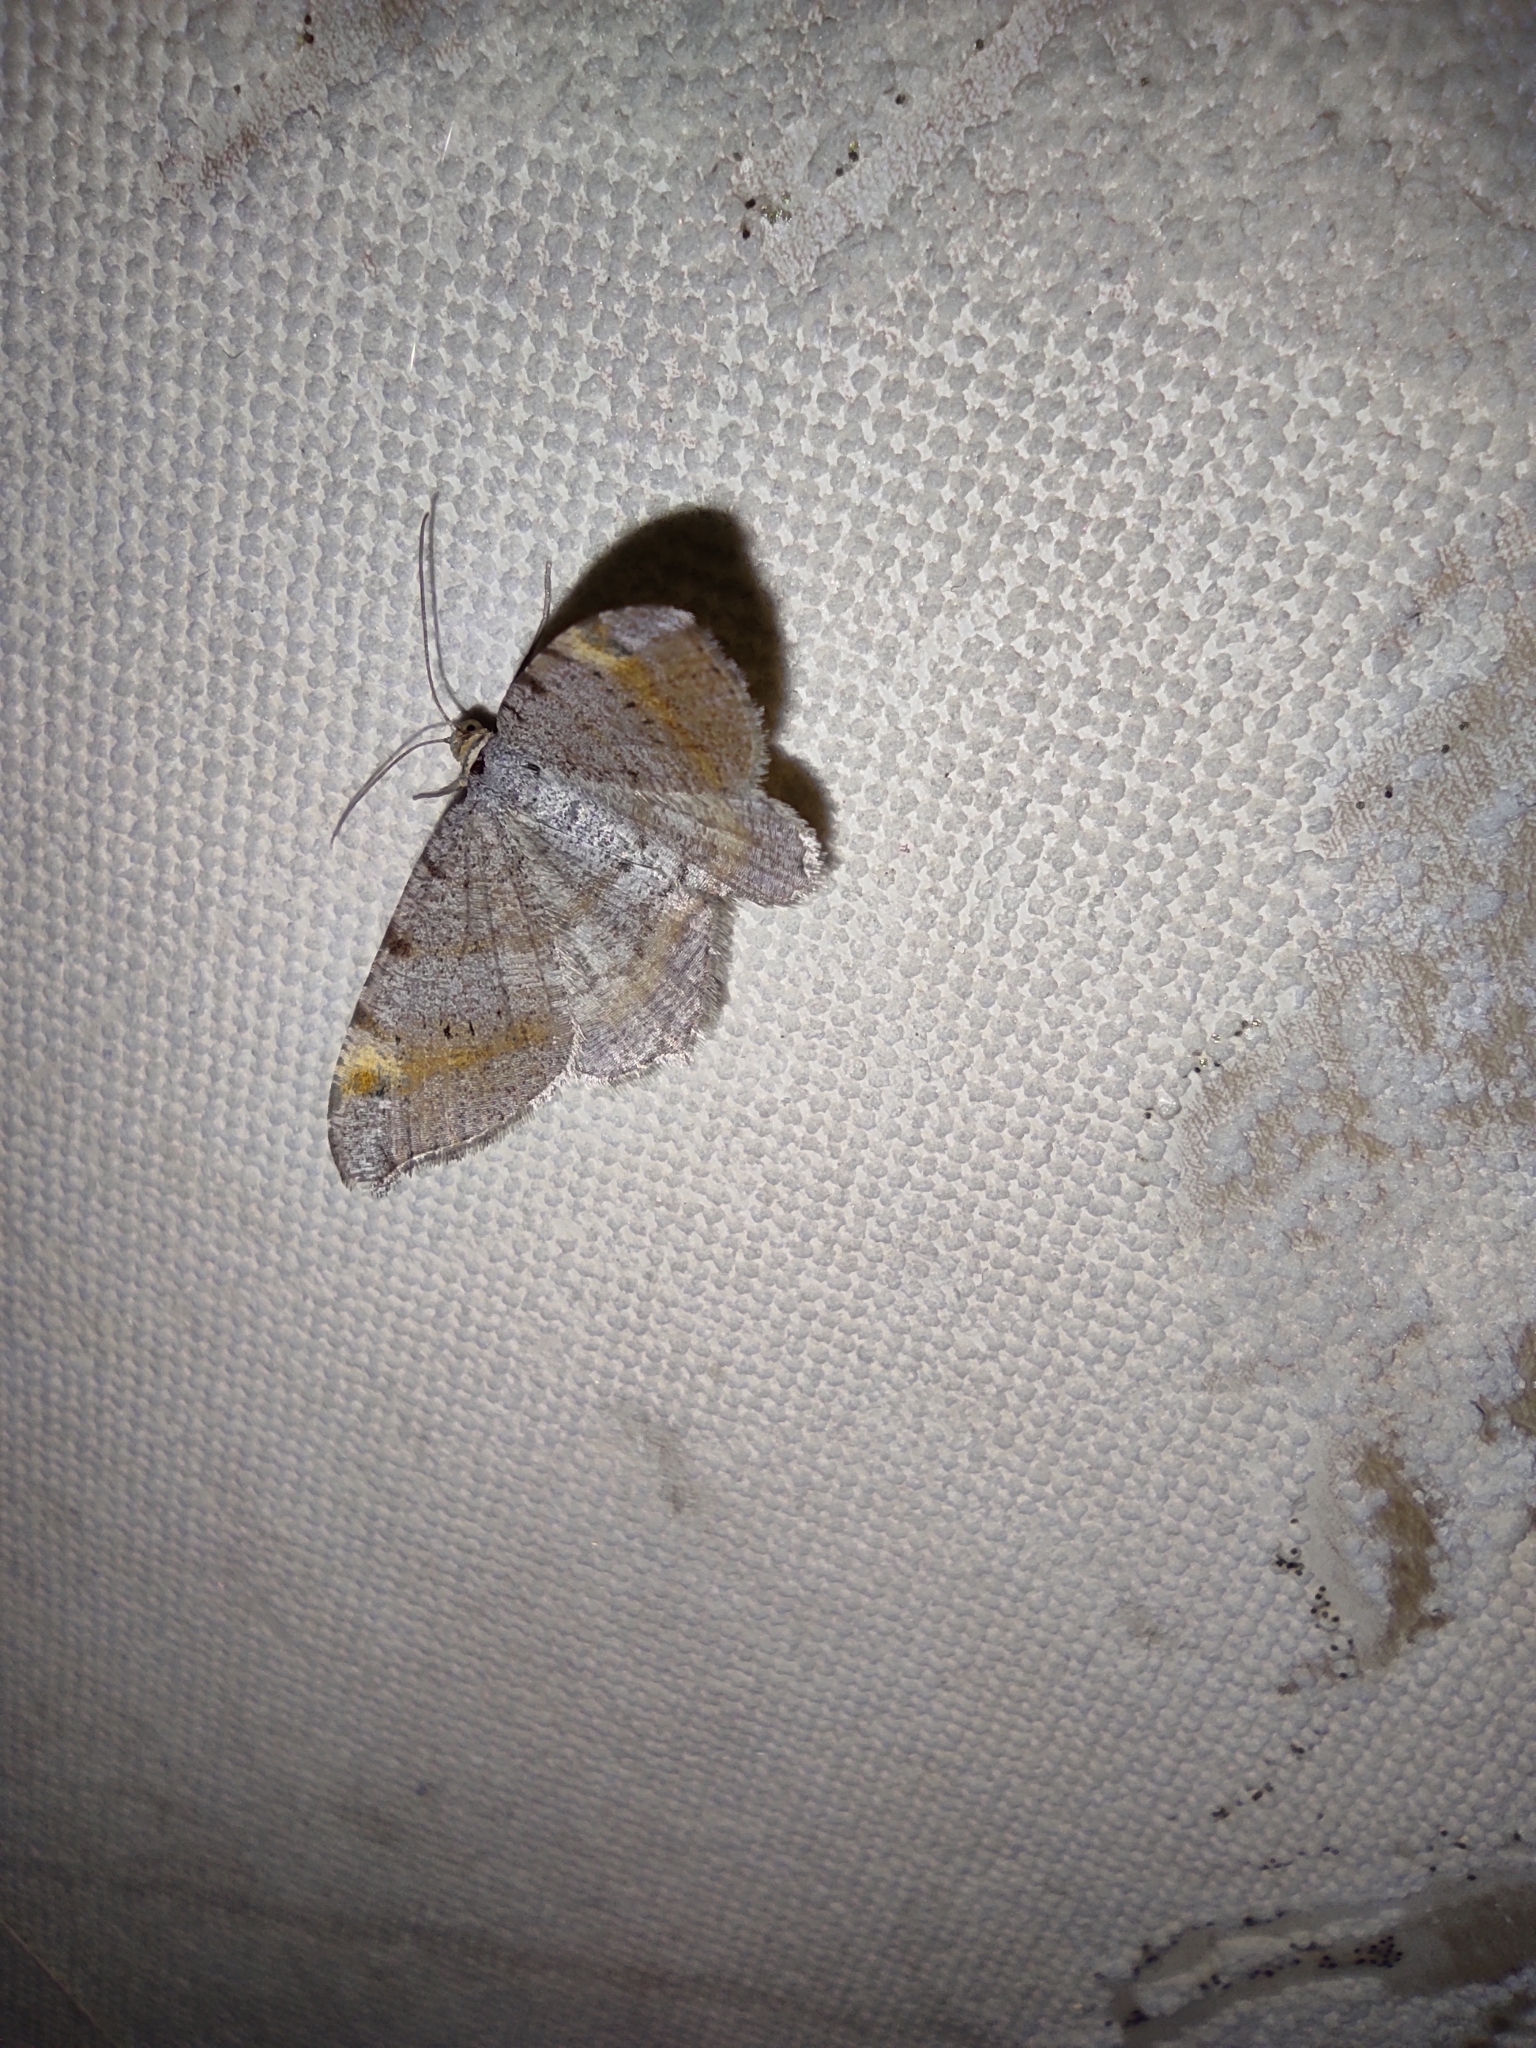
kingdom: Animalia
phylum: Arthropoda
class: Insecta
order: Lepidoptera
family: Geometridae
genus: Macaria
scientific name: Macaria liturata
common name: Tawny-barred angle
